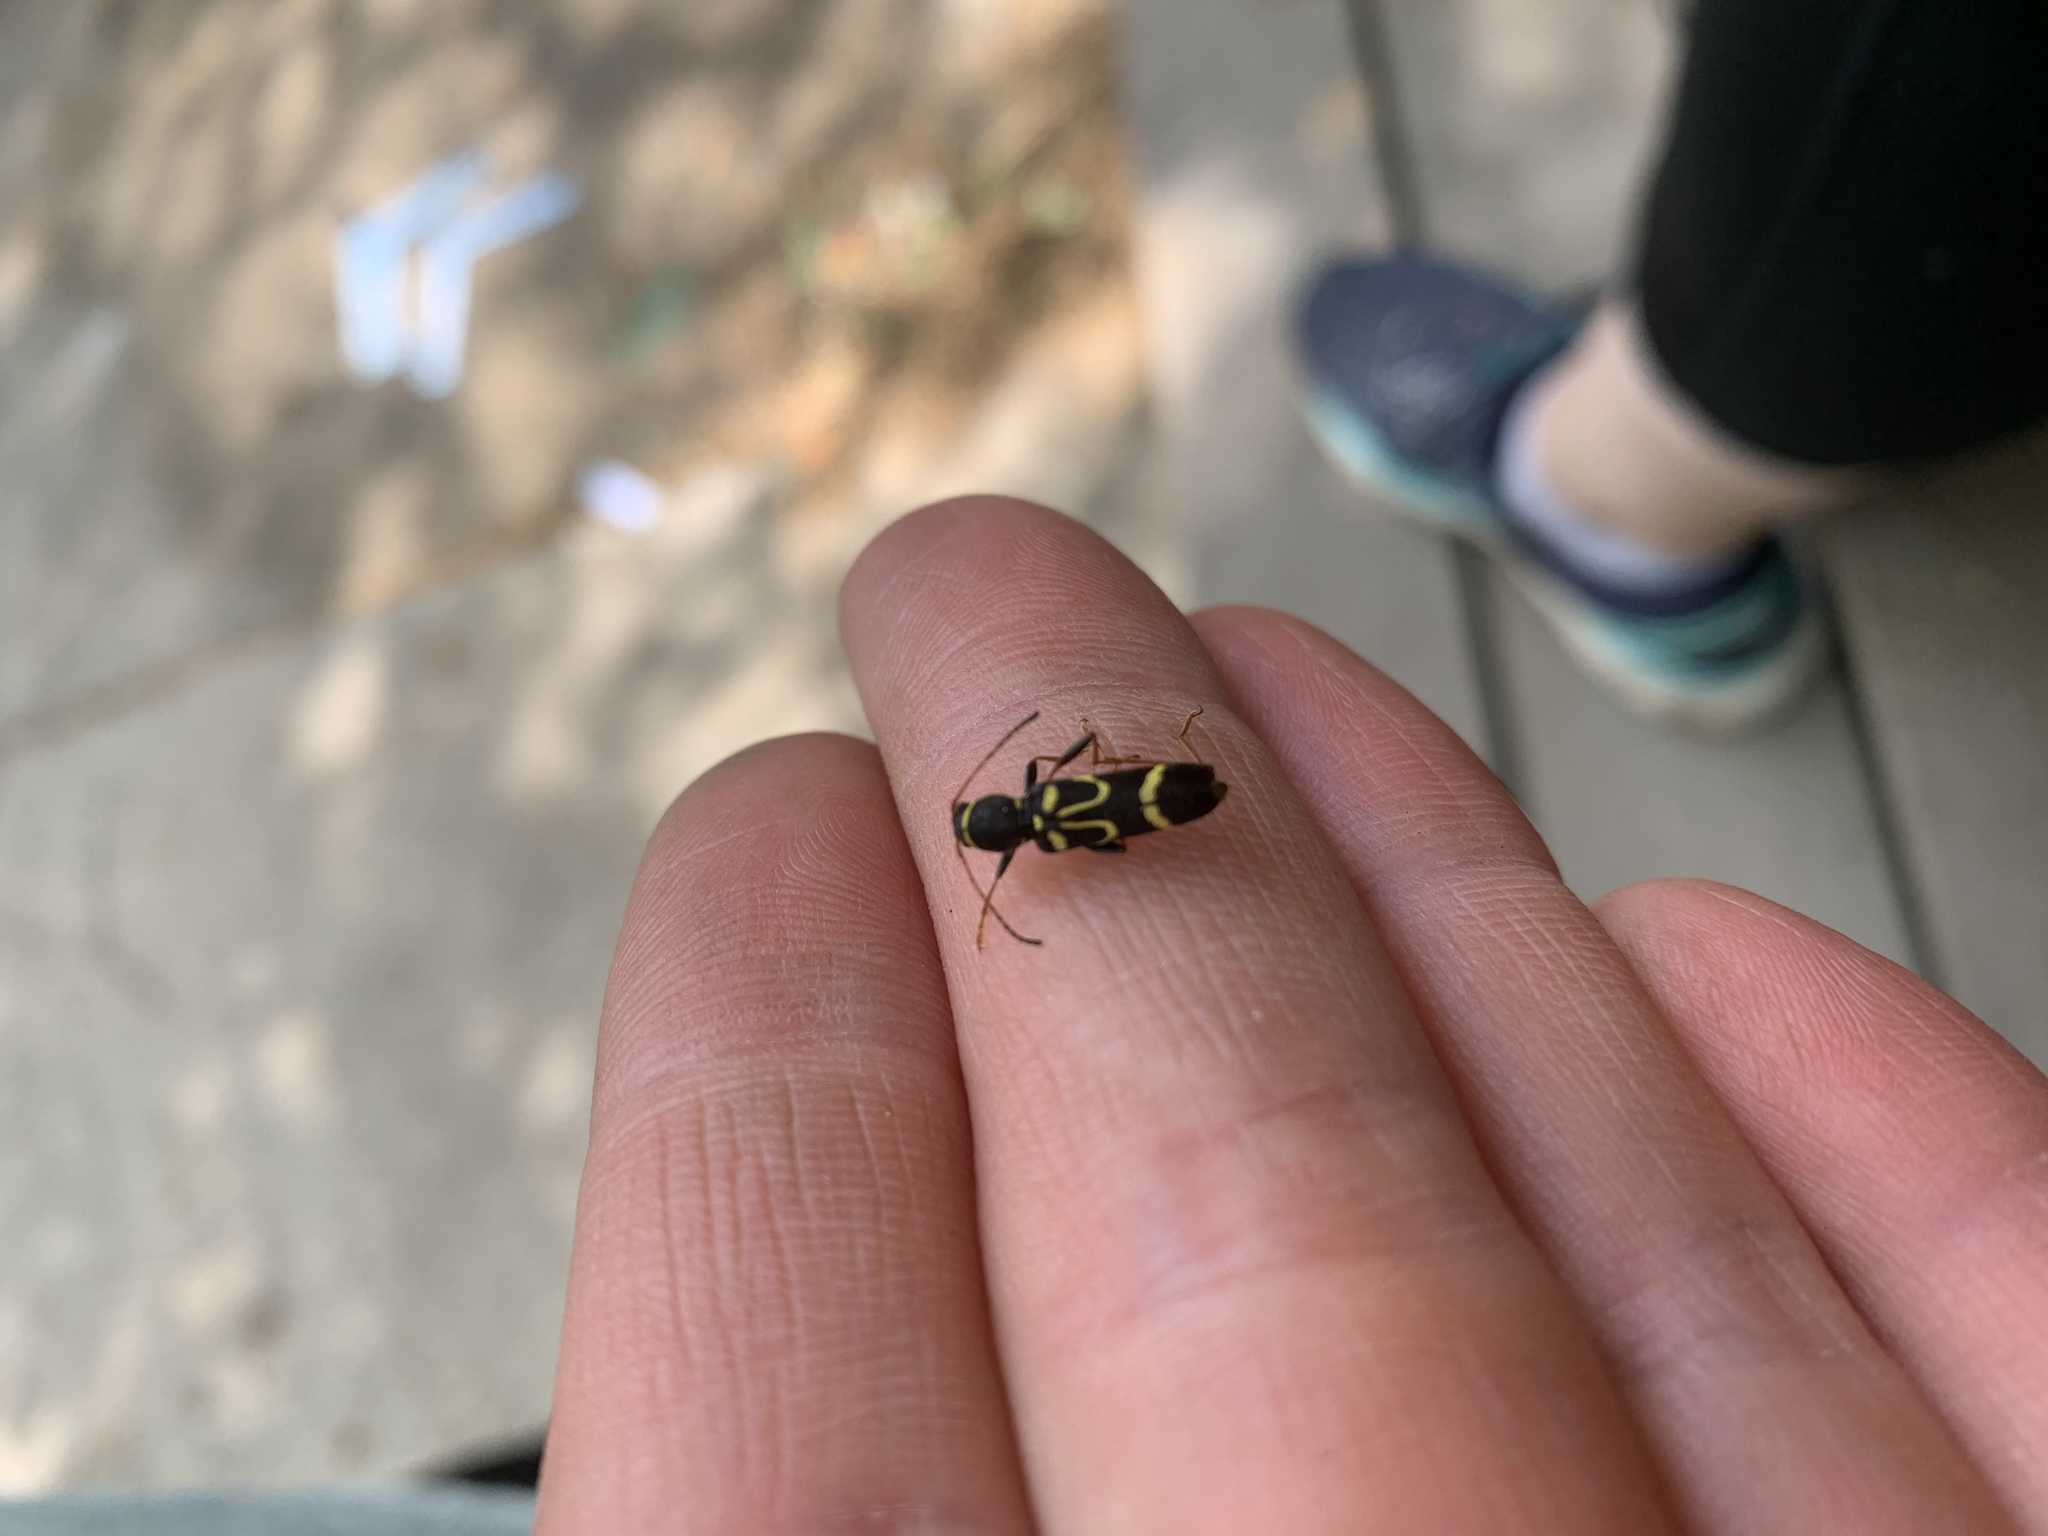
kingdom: Animalia
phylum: Arthropoda
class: Insecta
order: Coleoptera
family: Cerambycidae
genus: Clytus
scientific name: Clytus ruricola
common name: Round-necked longhorn beetle
